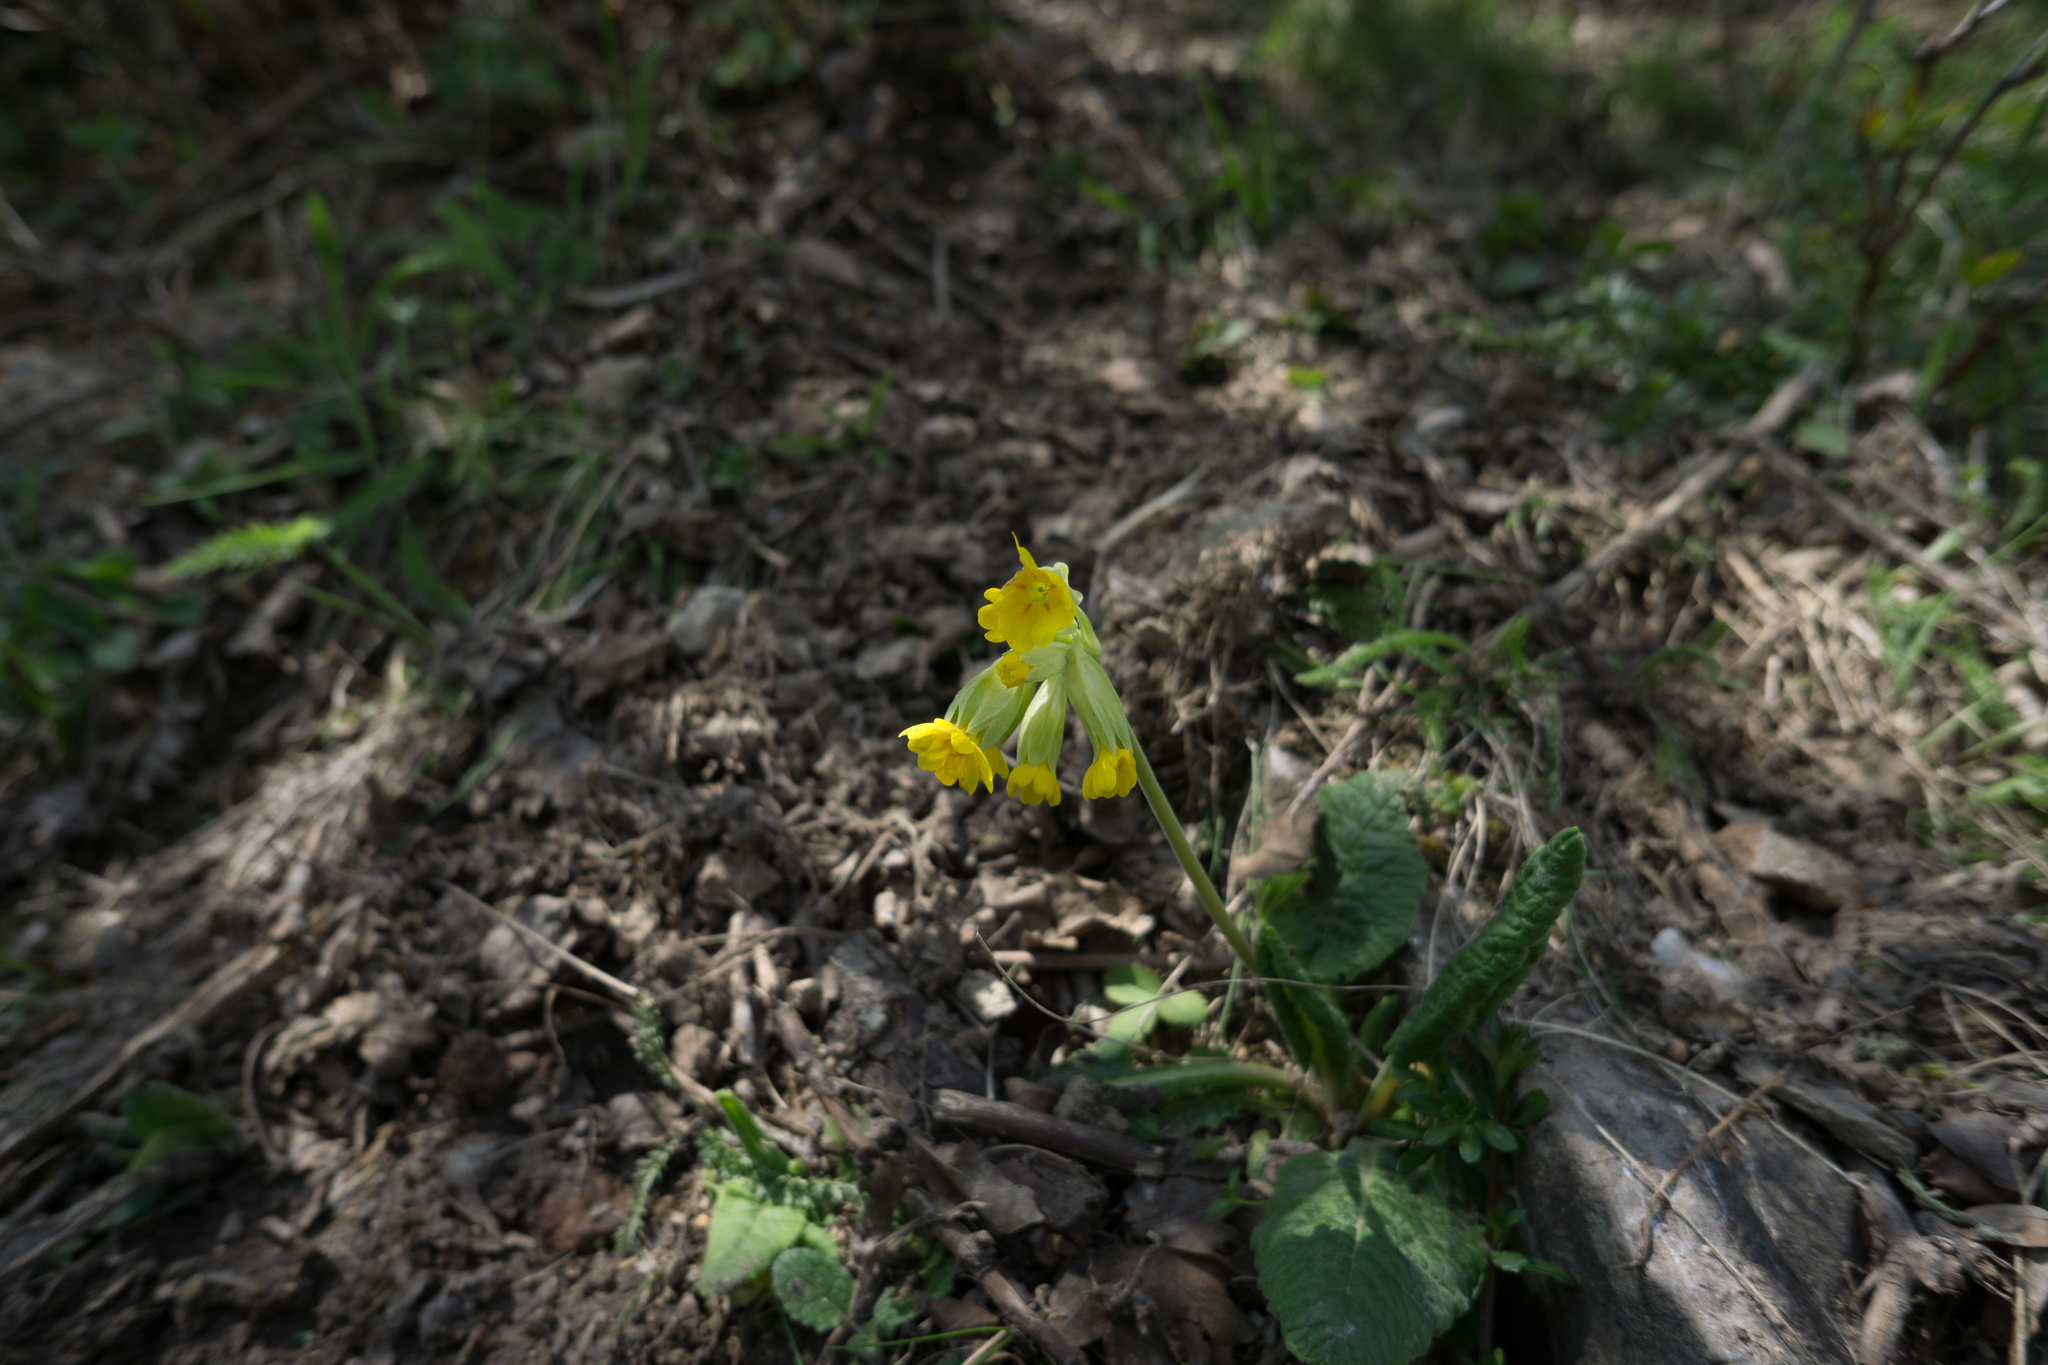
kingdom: Plantae
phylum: Tracheophyta
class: Magnoliopsida
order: Ericales
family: Primulaceae
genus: Primula
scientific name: Primula veris
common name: Cowslip
